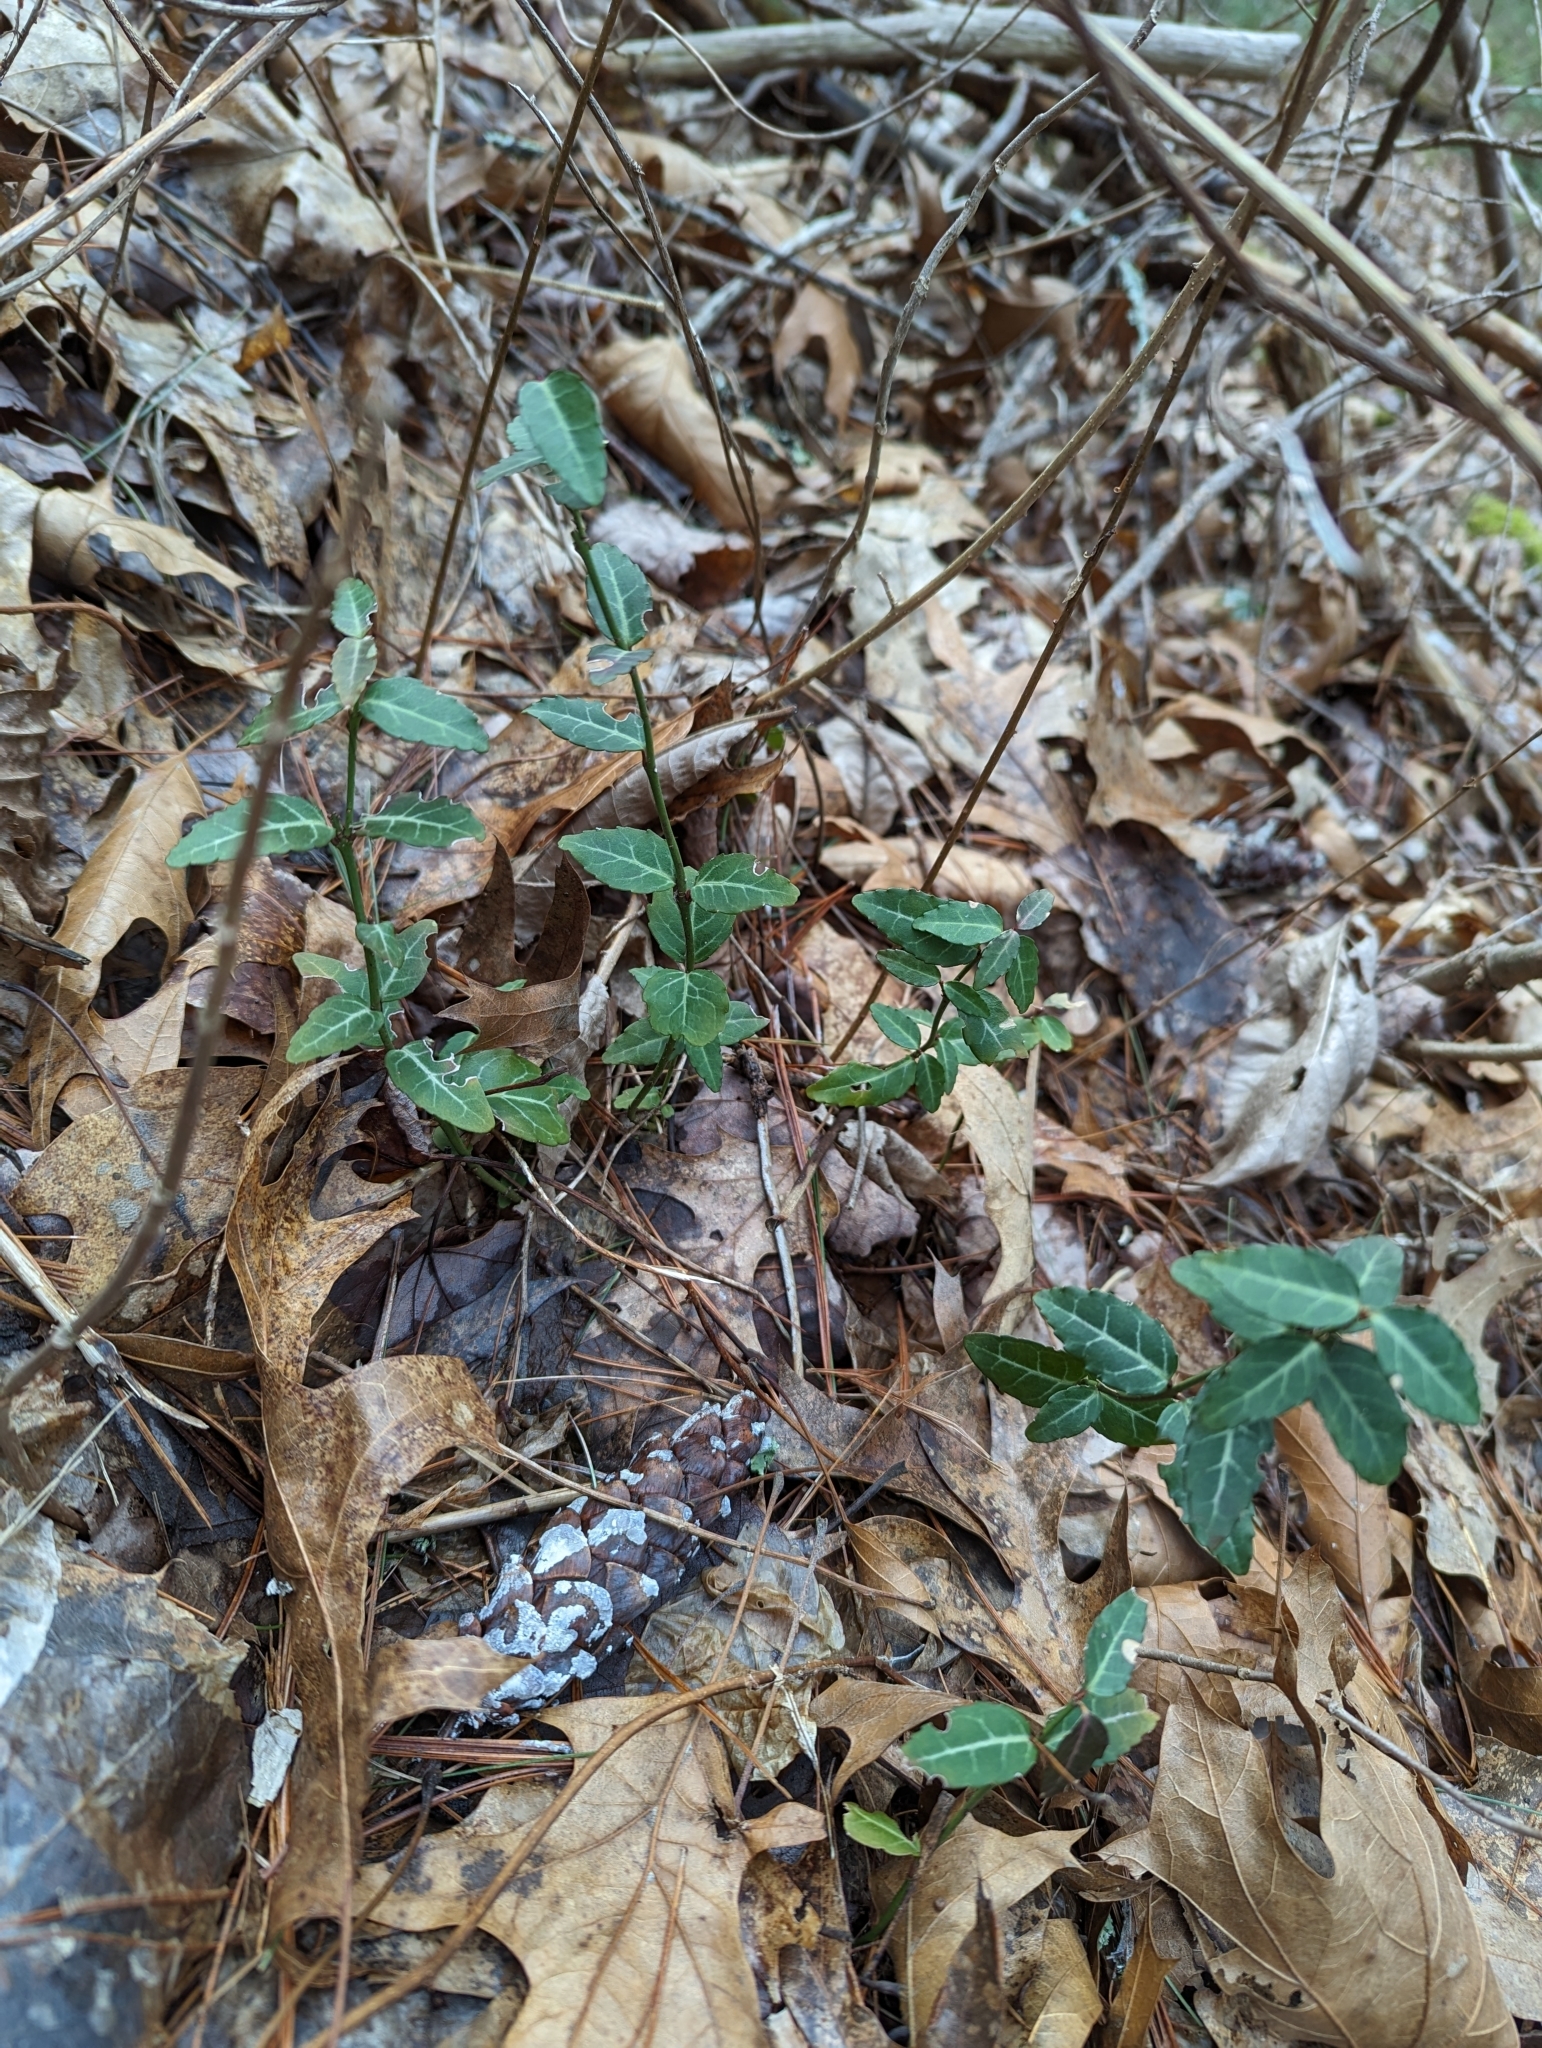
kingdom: Plantae
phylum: Tracheophyta
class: Magnoliopsida
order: Celastrales
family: Celastraceae
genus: Euonymus
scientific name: Euonymus fortunei
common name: Climbing euonymus
